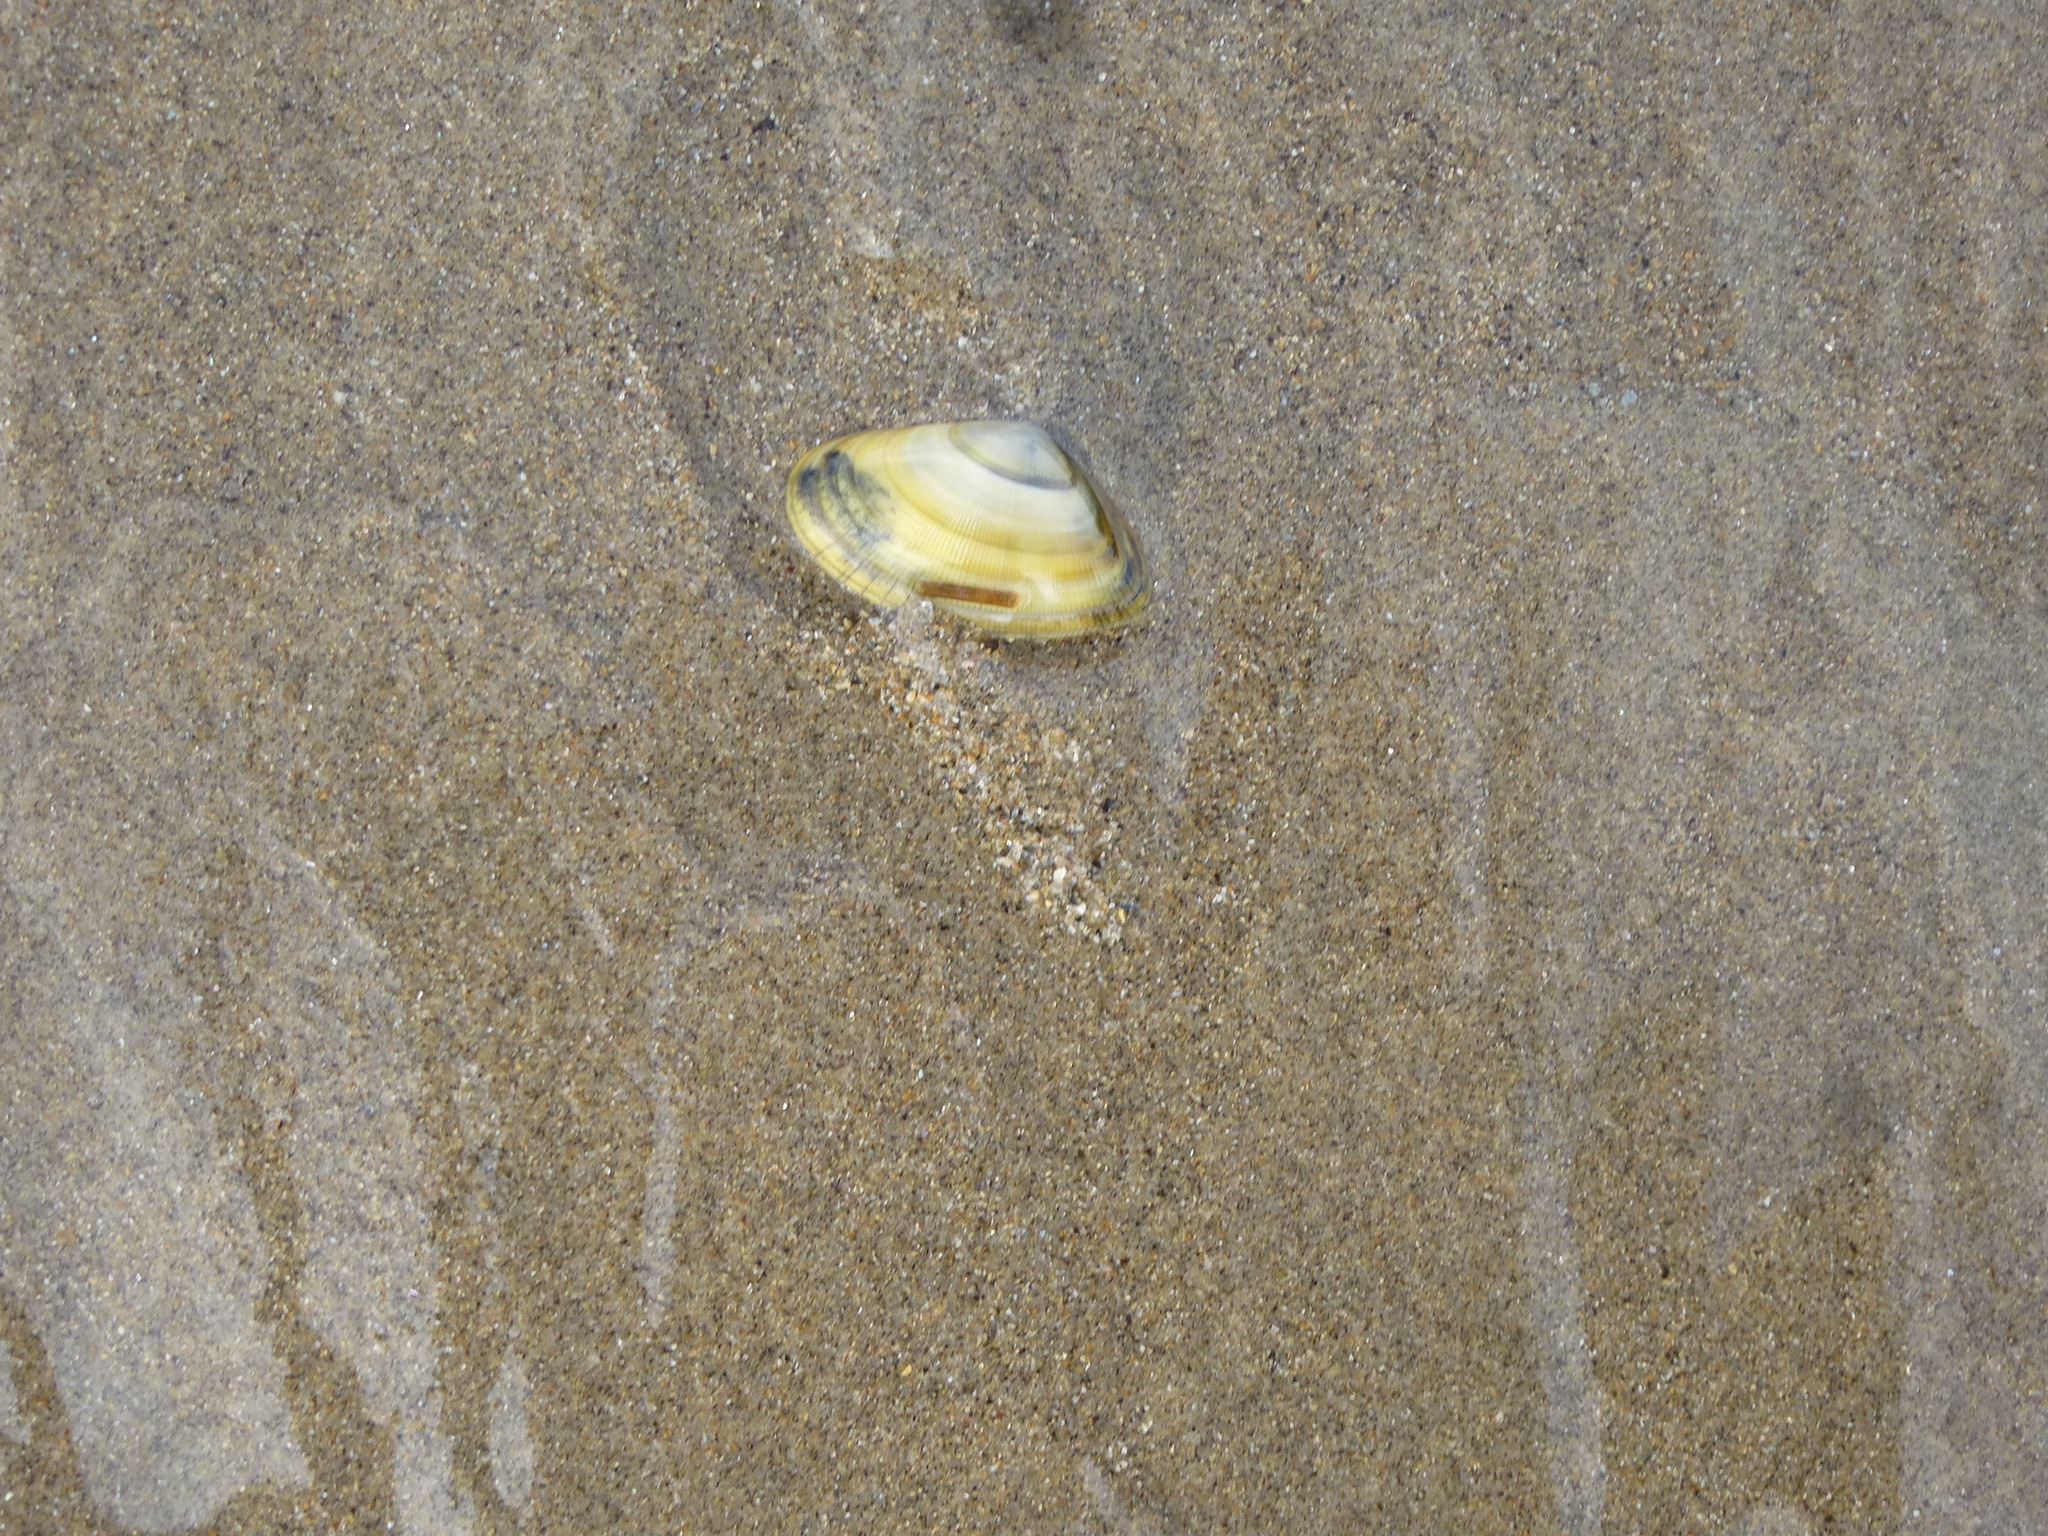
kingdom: Animalia
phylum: Mollusca
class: Bivalvia
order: Cardiida
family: Donacidae
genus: Donax
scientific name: Donax vittatus
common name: Banded wedge-shell
